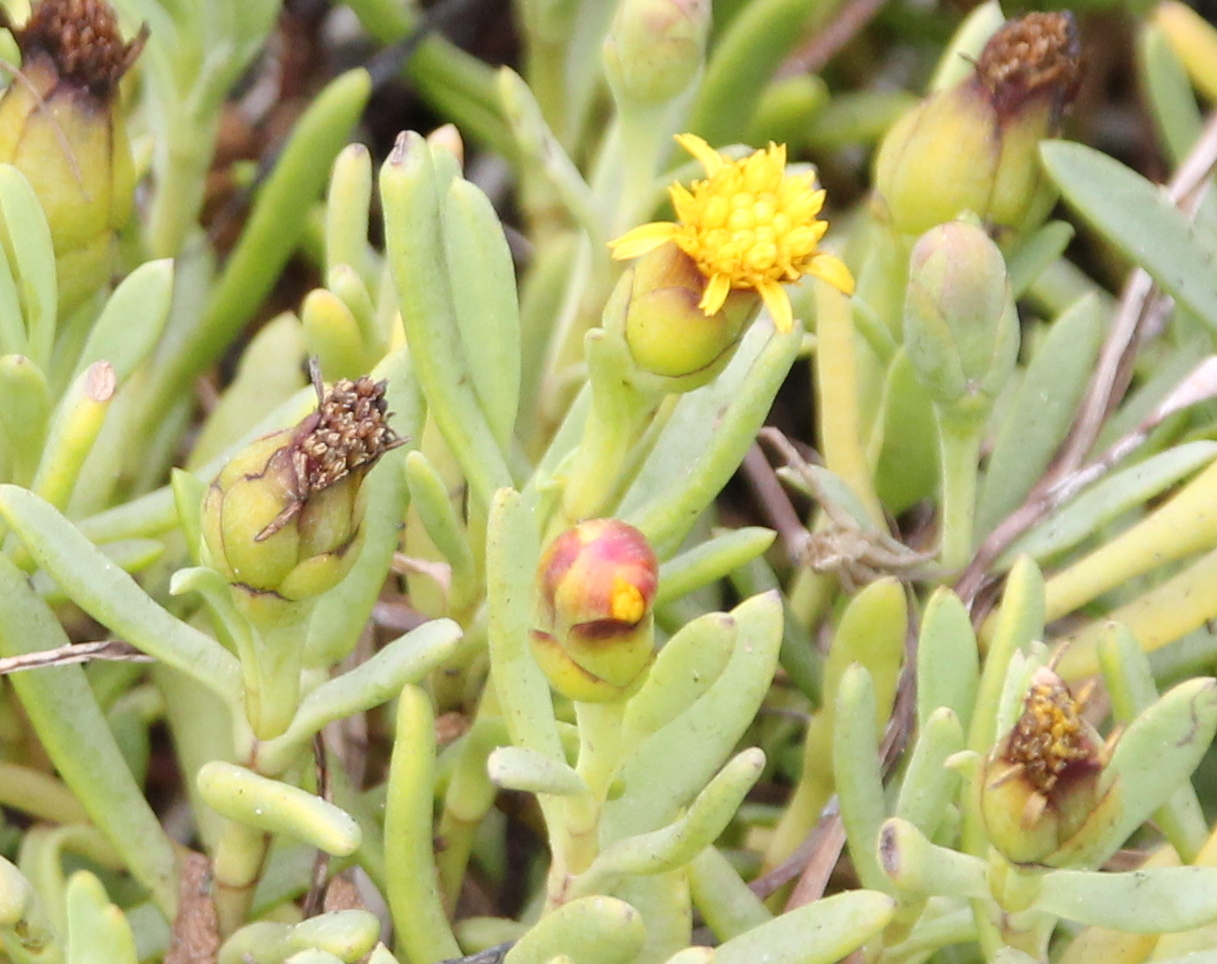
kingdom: Plantae
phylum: Tracheophyta
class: Magnoliopsida
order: Asterales
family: Asteraceae
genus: Jaumea
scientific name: Jaumea carnosa
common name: Fleshy jaumea
